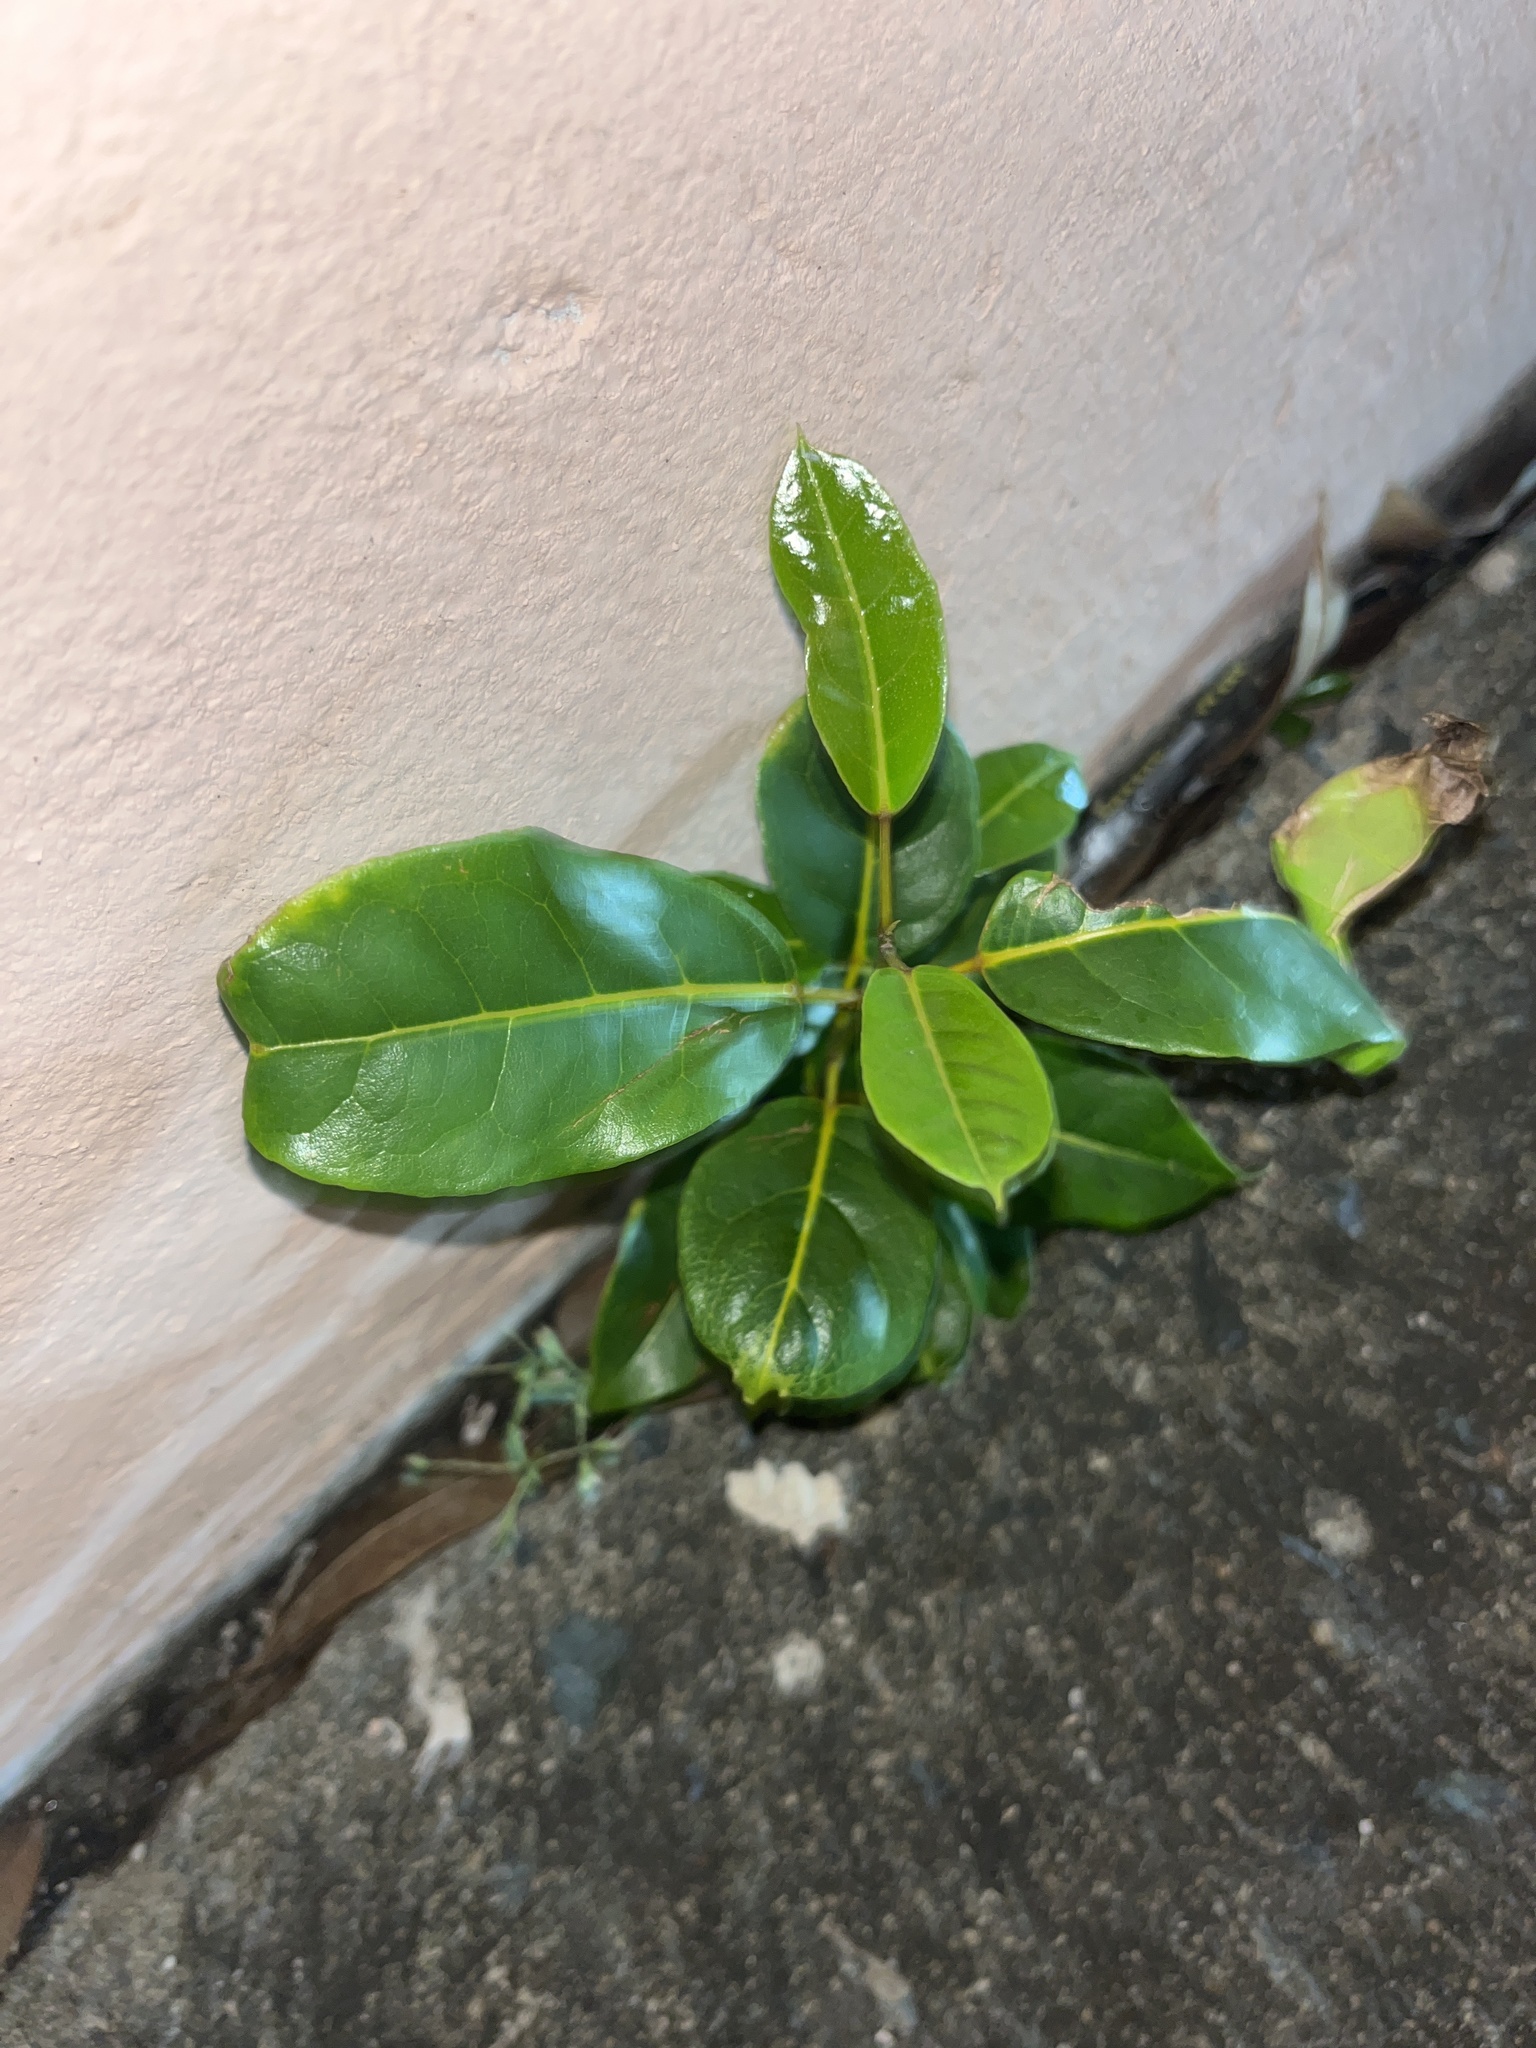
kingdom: Plantae
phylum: Tracheophyta
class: Magnoliopsida
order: Lamiales
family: Bignoniaceae
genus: Tabebuia
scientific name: Tabebuia heterophylla
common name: White cedar
